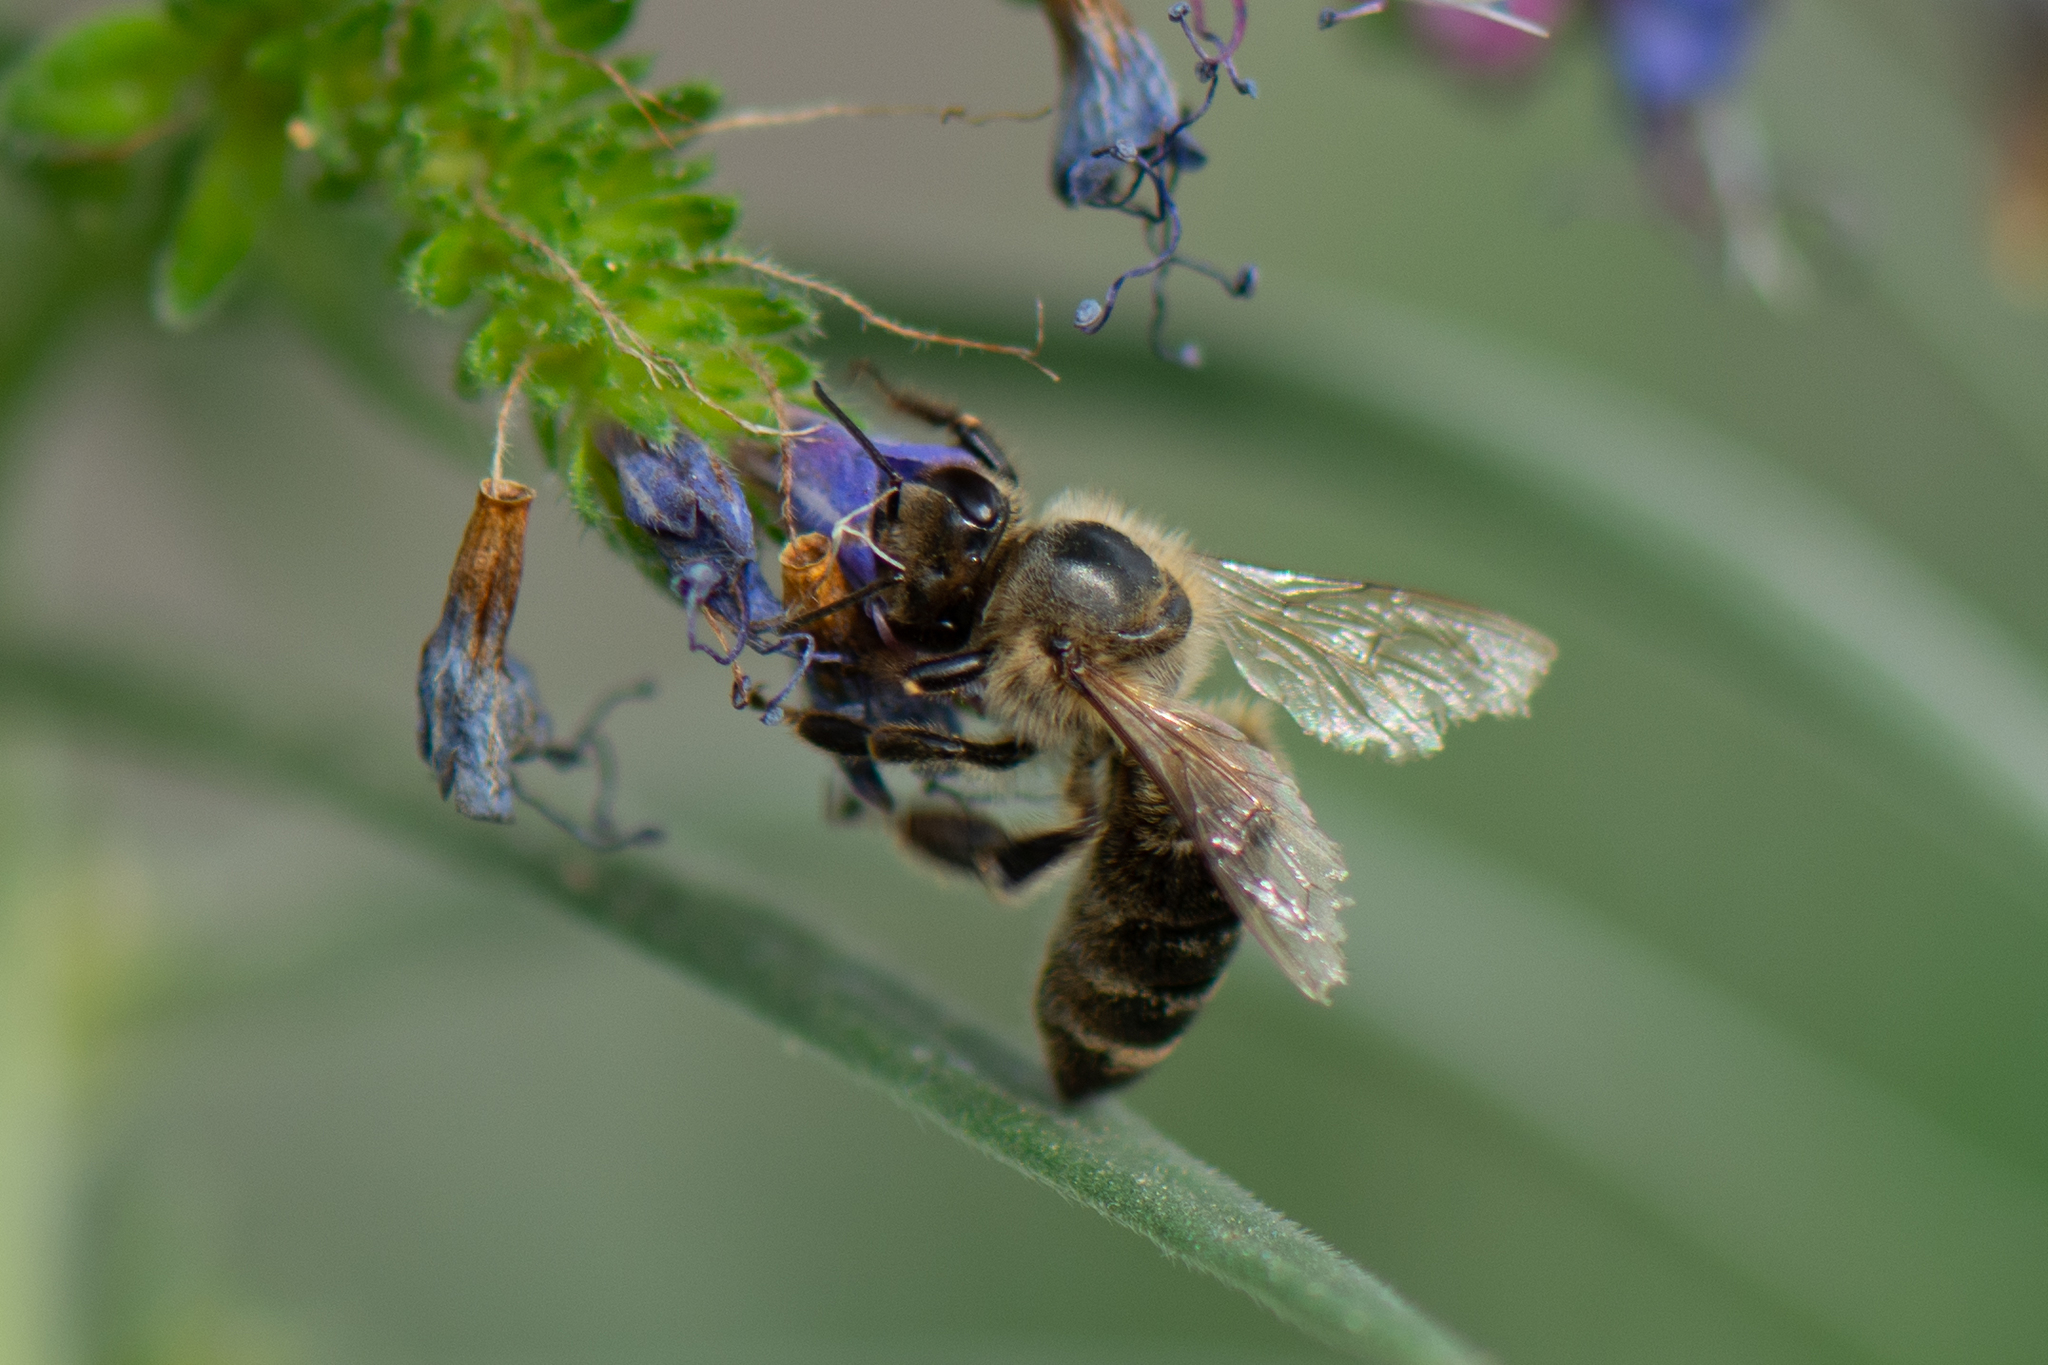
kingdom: Animalia
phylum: Arthropoda
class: Insecta
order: Hymenoptera
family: Apidae
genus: Apis
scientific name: Apis mellifera
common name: Honey bee
